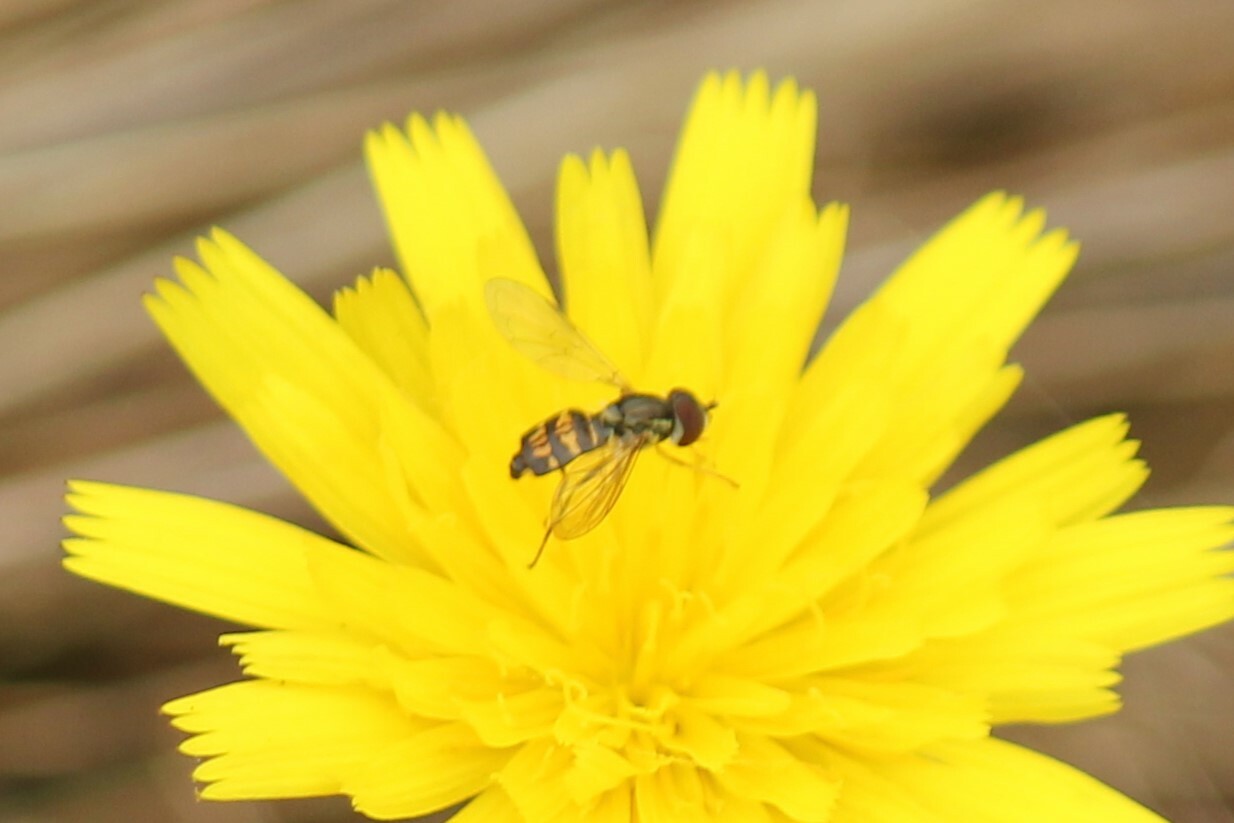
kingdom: Animalia
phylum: Arthropoda
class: Insecta
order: Diptera
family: Syrphidae
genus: Toxomerus
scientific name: Toxomerus occidentalis
